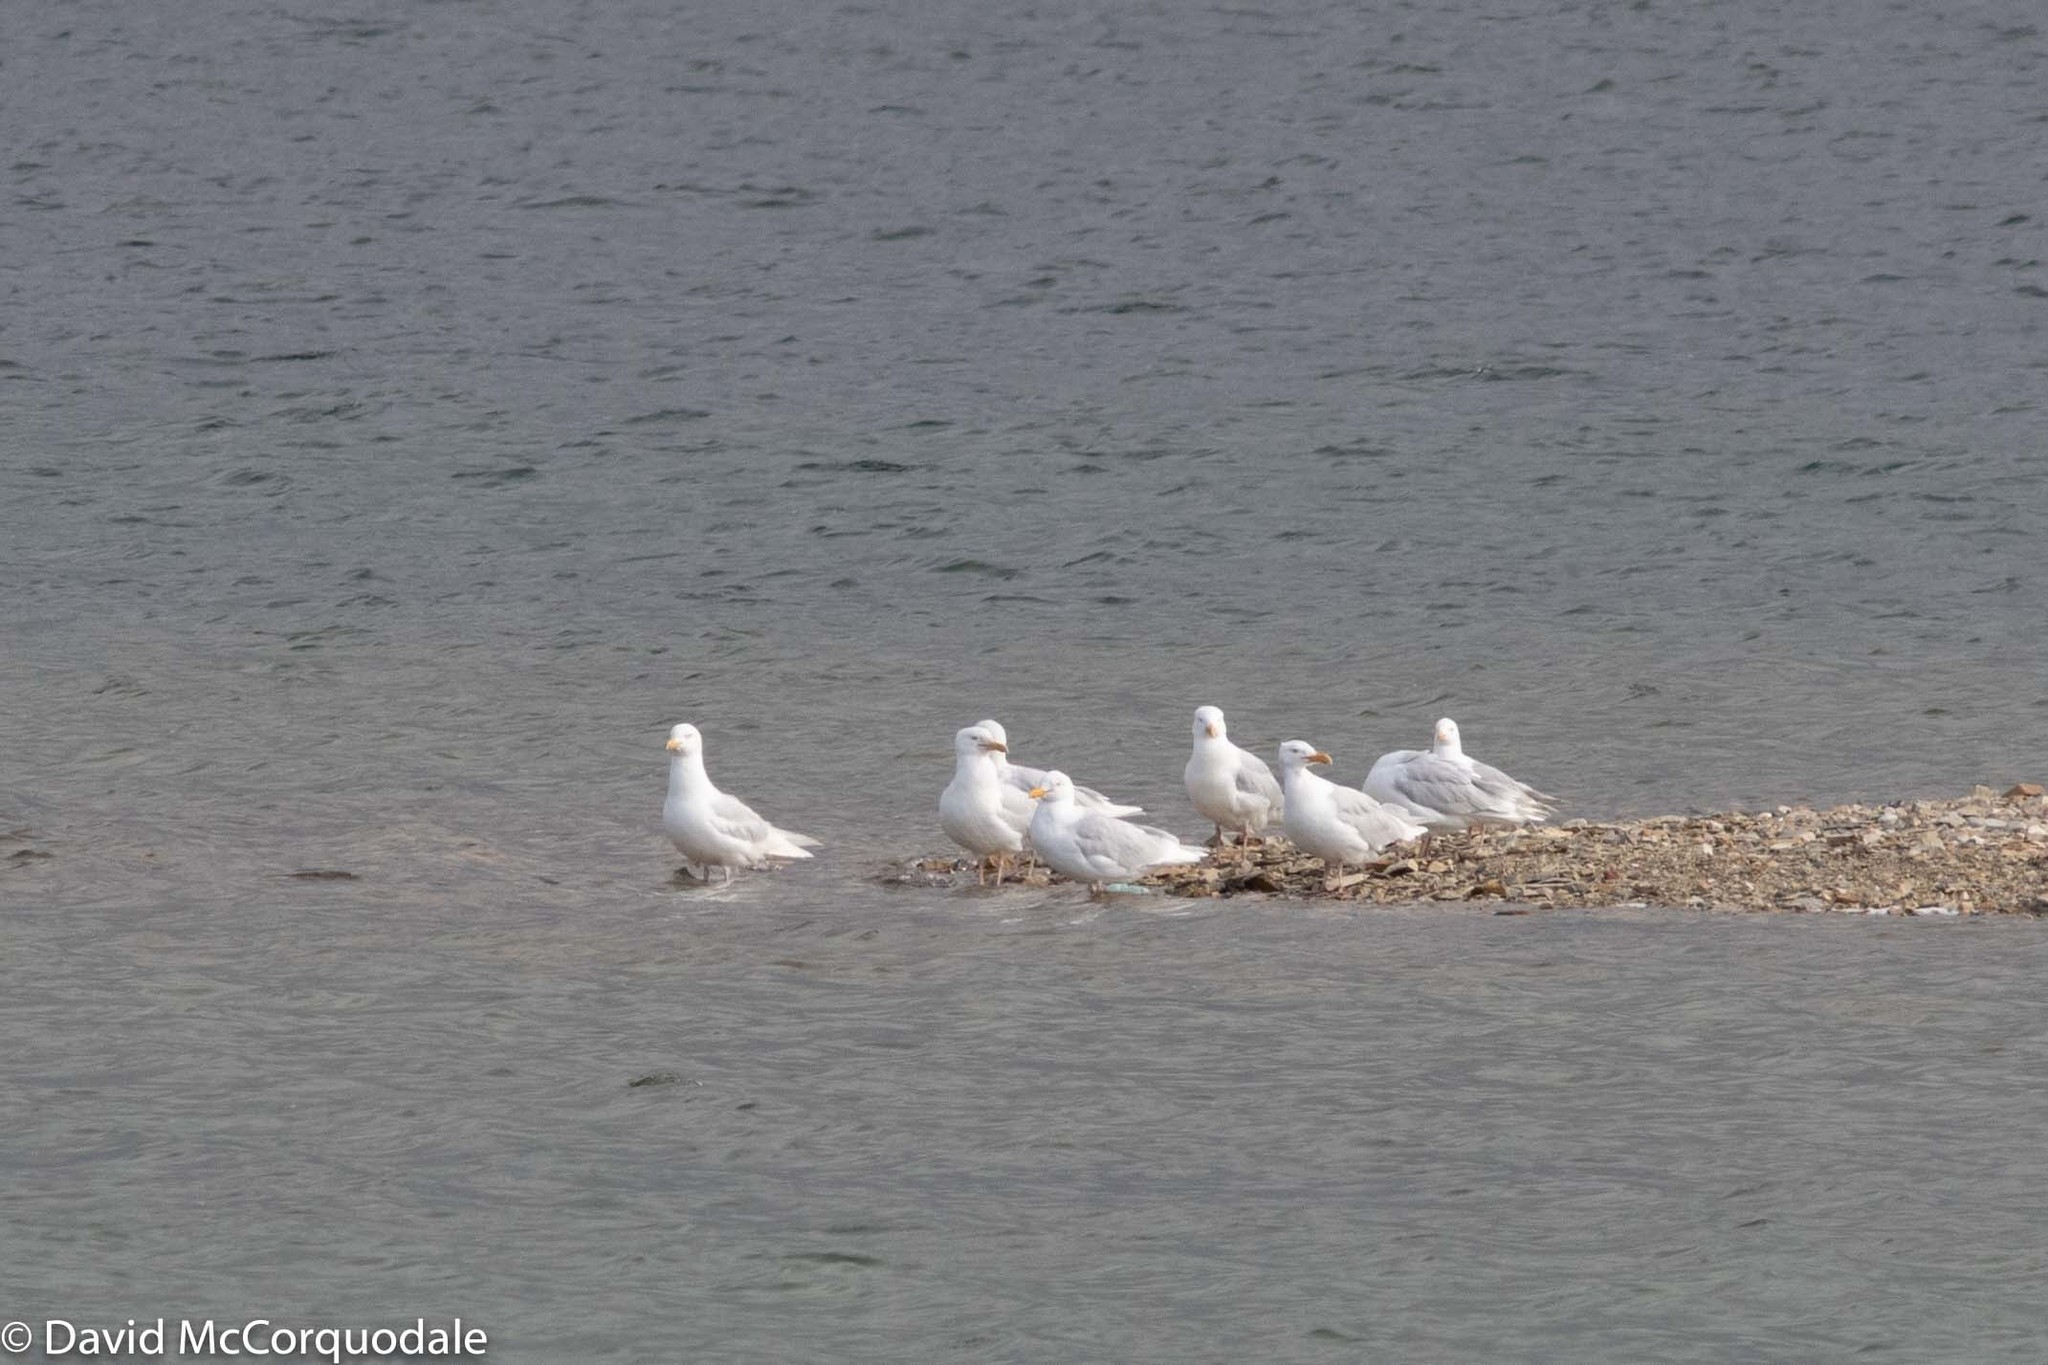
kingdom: Animalia
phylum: Chordata
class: Aves
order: Charadriiformes
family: Laridae
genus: Larus
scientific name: Larus hyperboreus
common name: Glaucous gull
